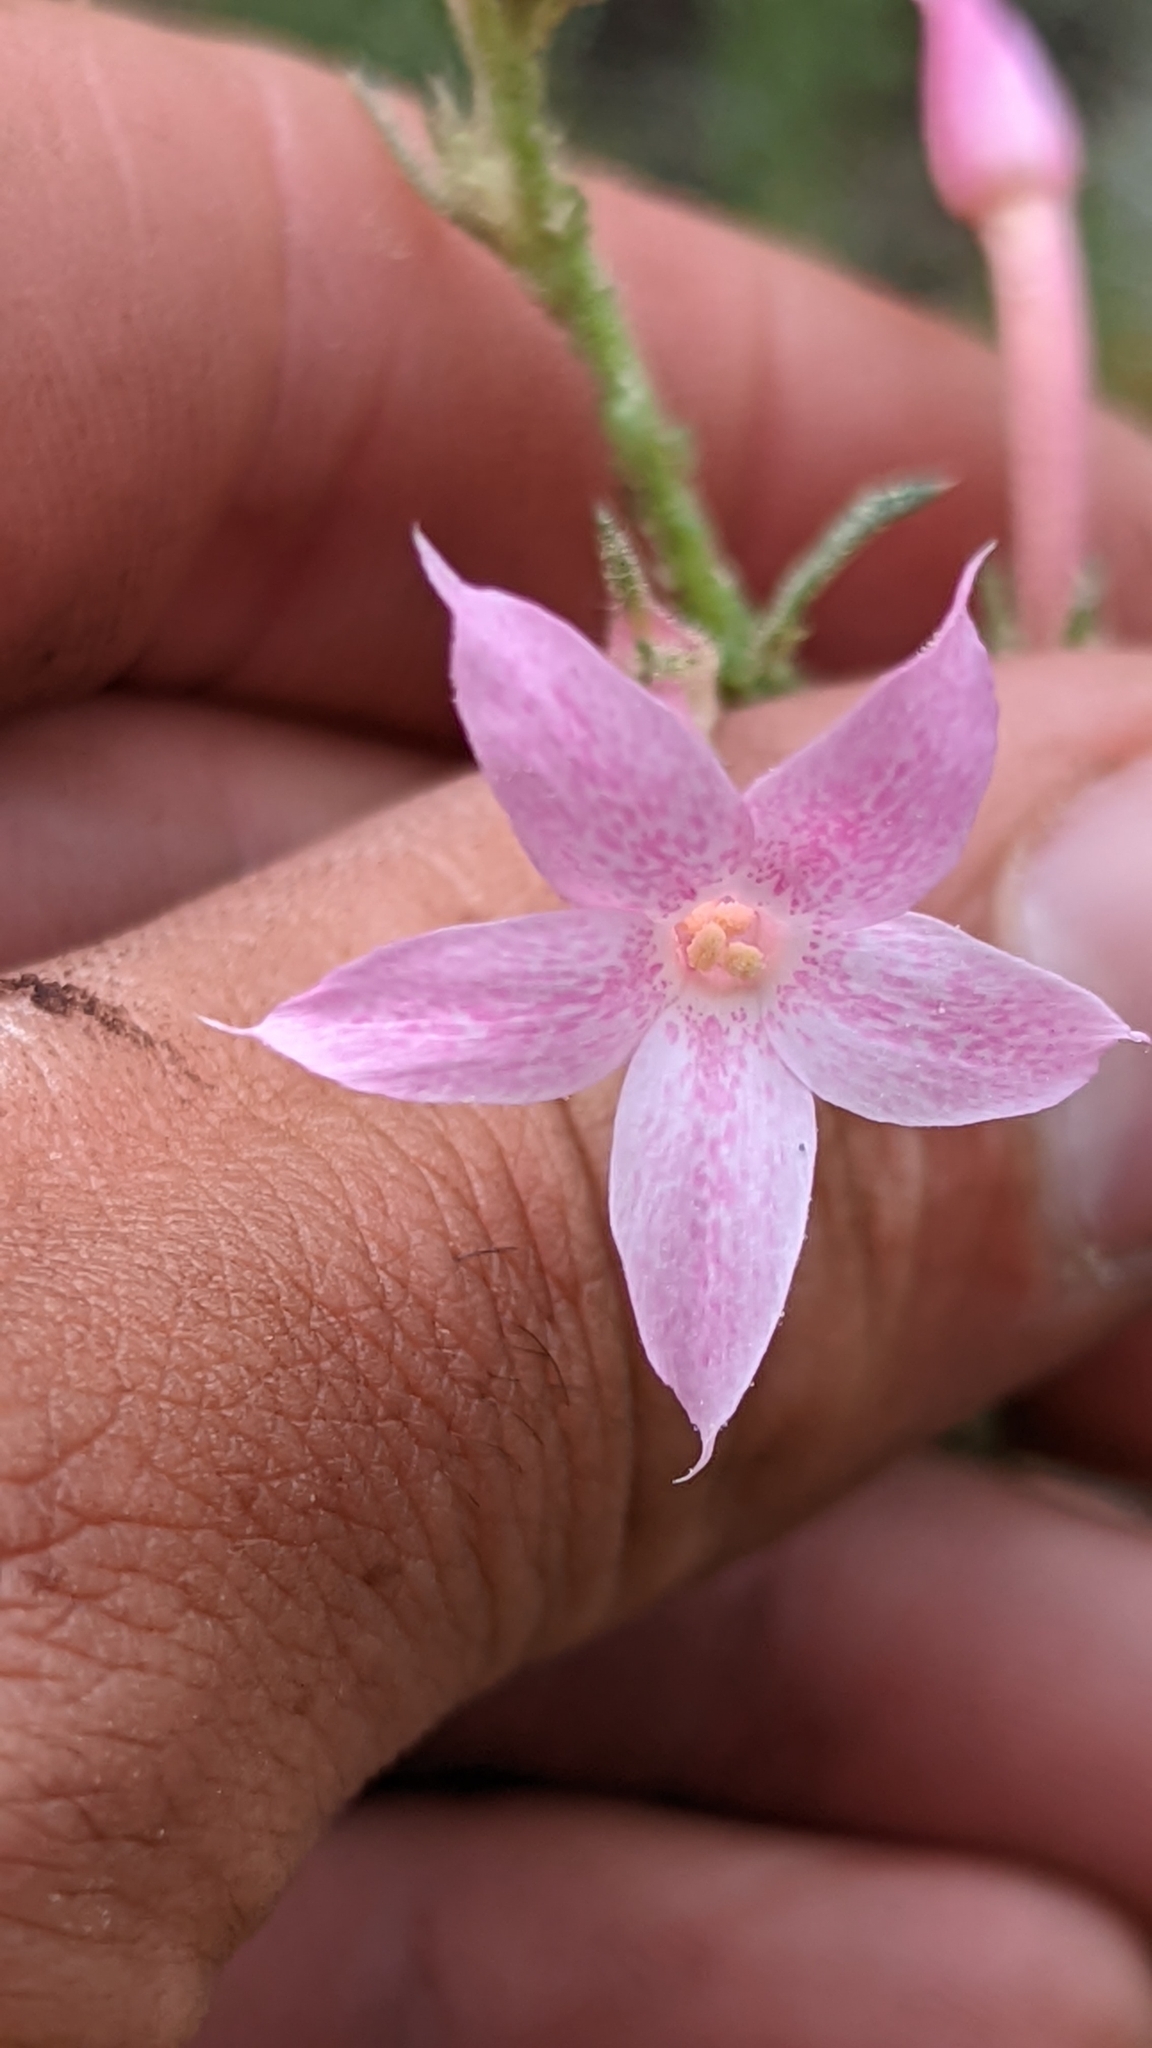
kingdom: Plantae
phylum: Tracheophyta
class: Magnoliopsida
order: Ericales
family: Polemoniaceae
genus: Ipomopsis
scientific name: Ipomopsis tenuituba
